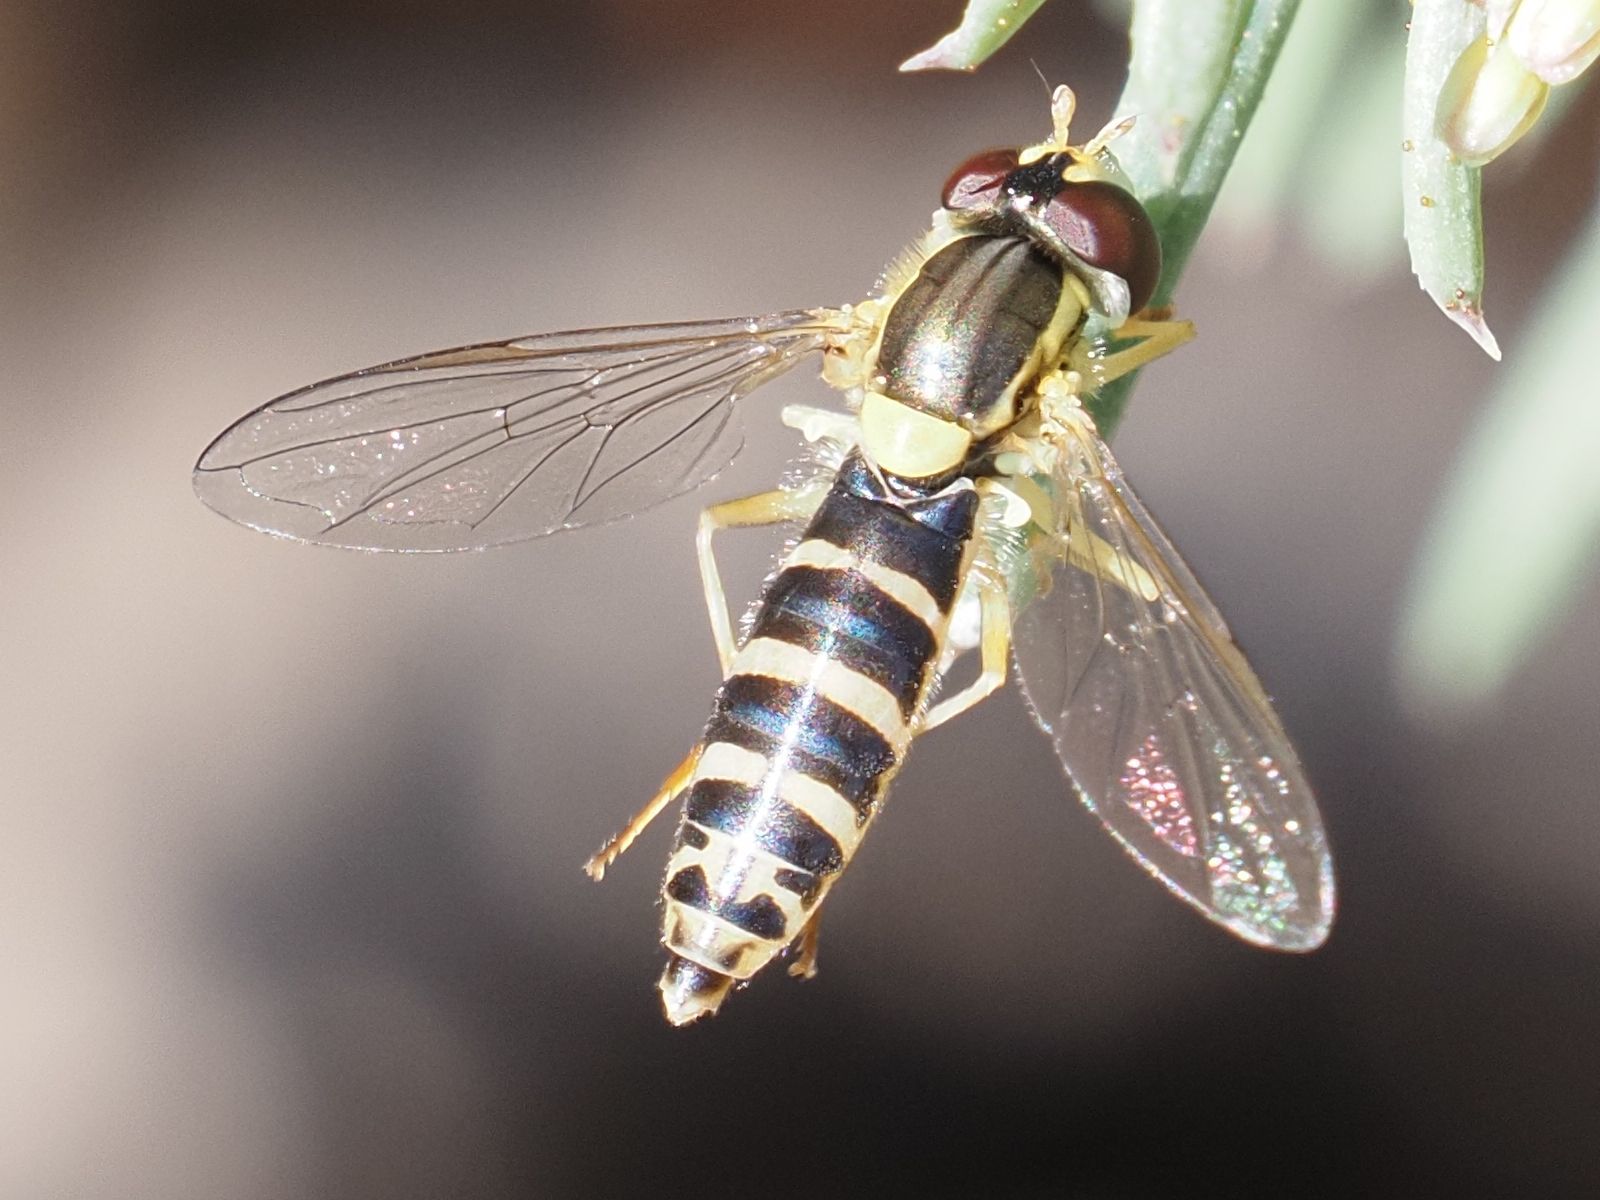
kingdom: Animalia
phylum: Arthropoda
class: Insecta
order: Diptera
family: Syrphidae
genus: Sphaerophoria
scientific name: Sphaerophoria
